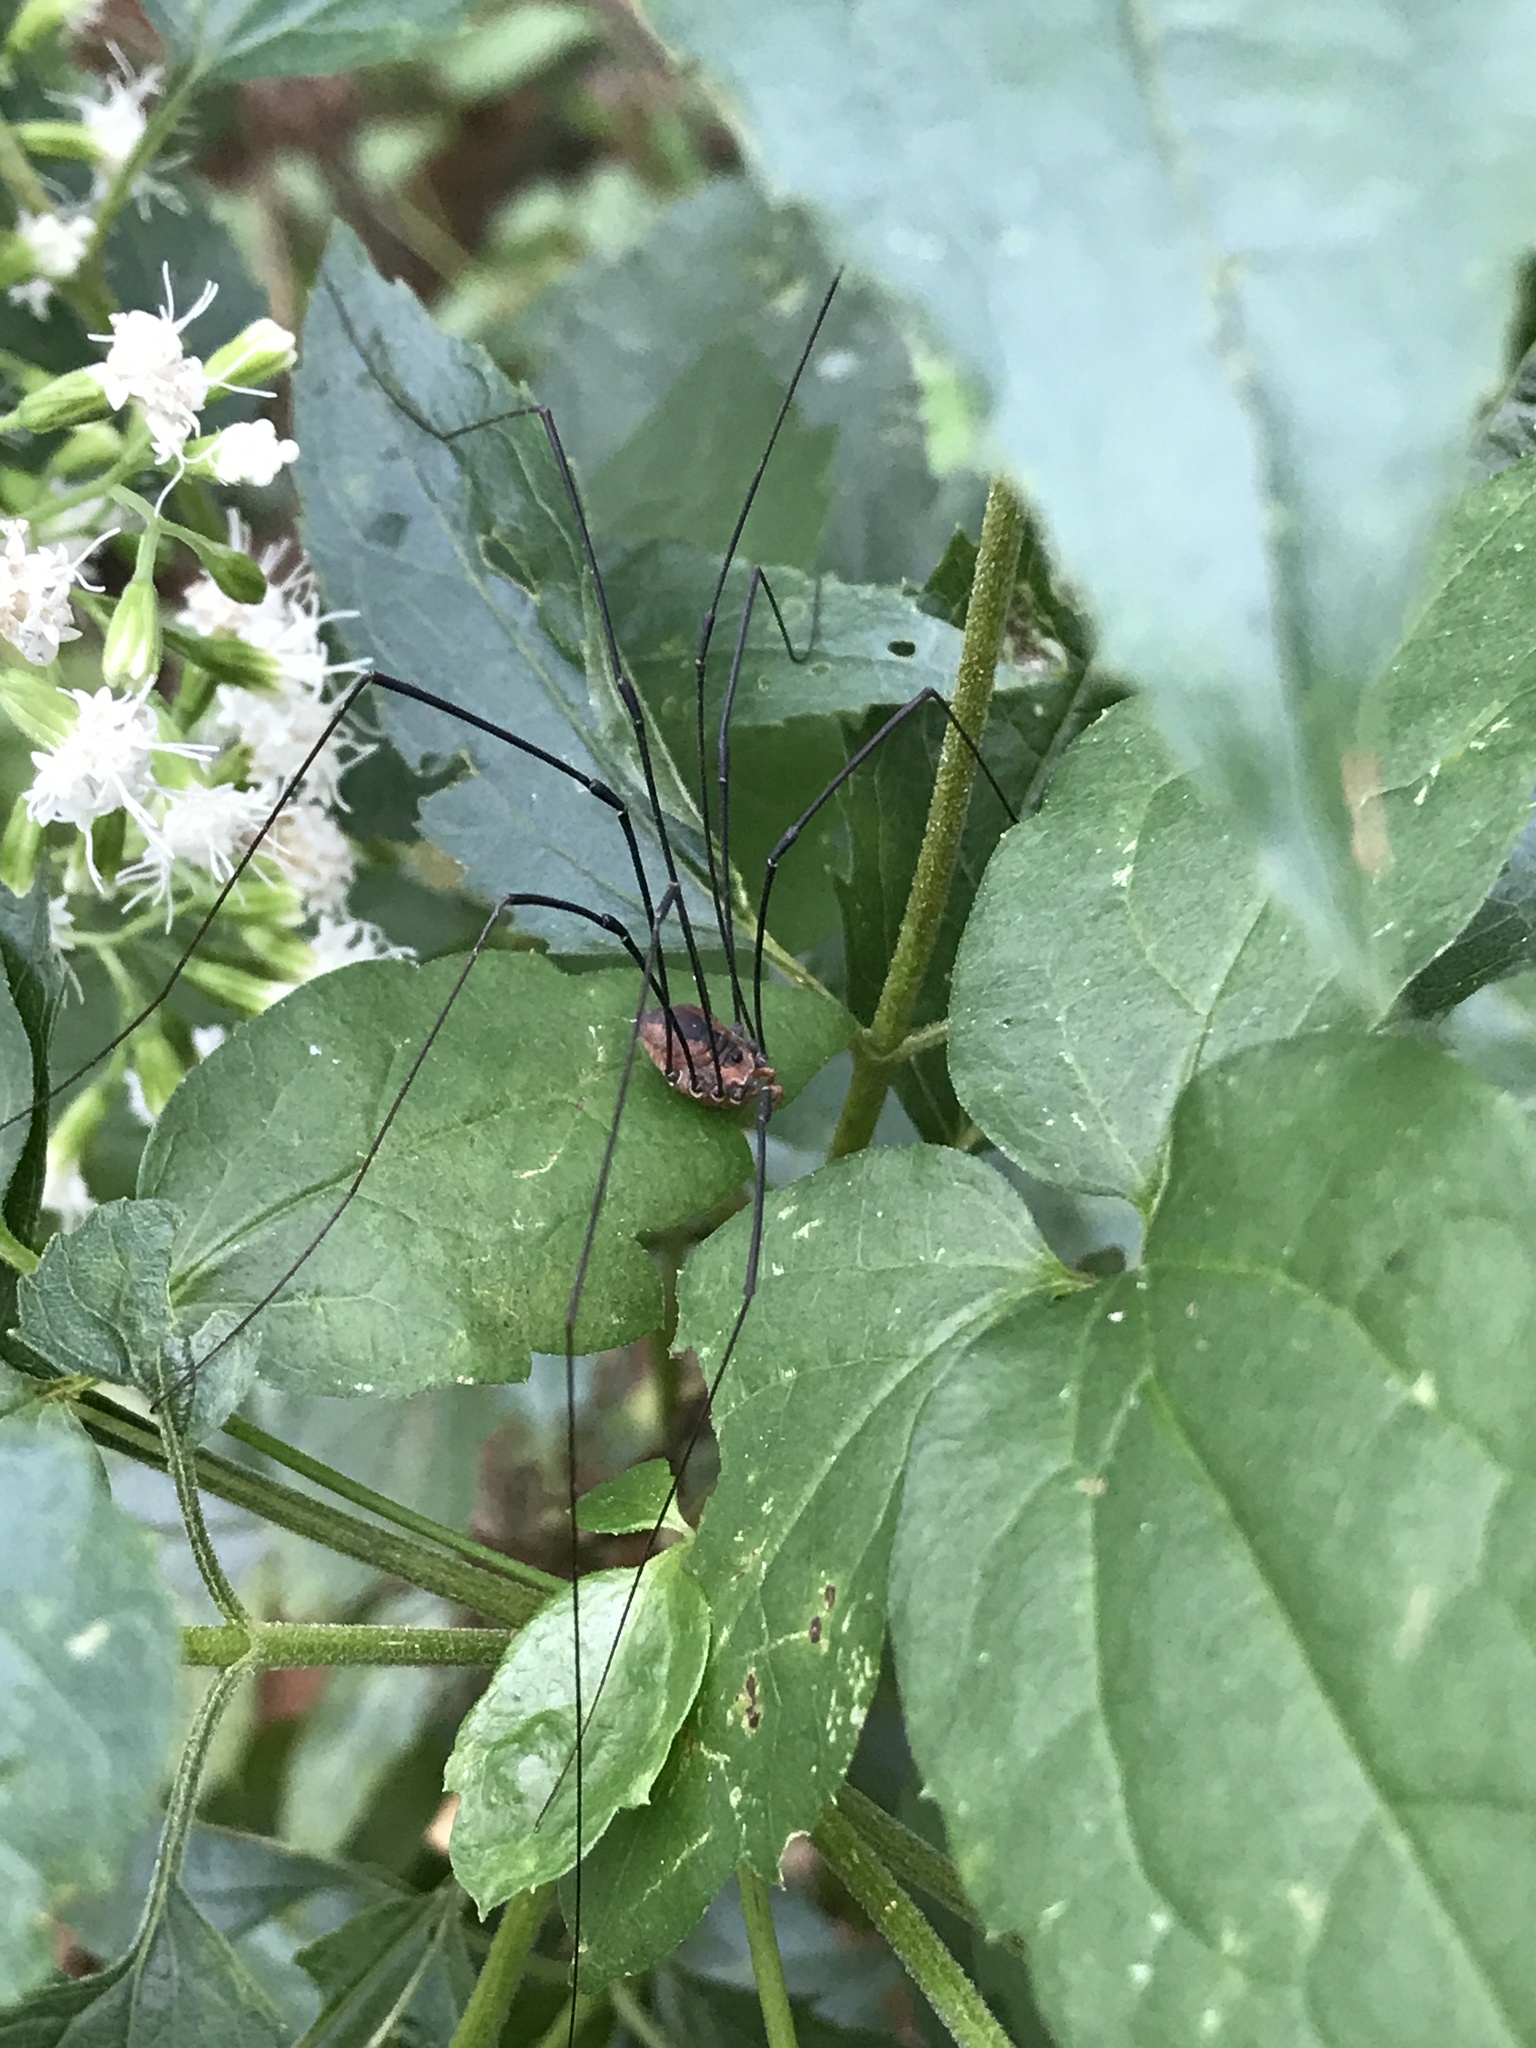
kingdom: Animalia
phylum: Arthropoda
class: Arachnida
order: Opiliones
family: Sclerosomatidae
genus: Leiobunum
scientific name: Leiobunum vittatum
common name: Eastern harvestman
